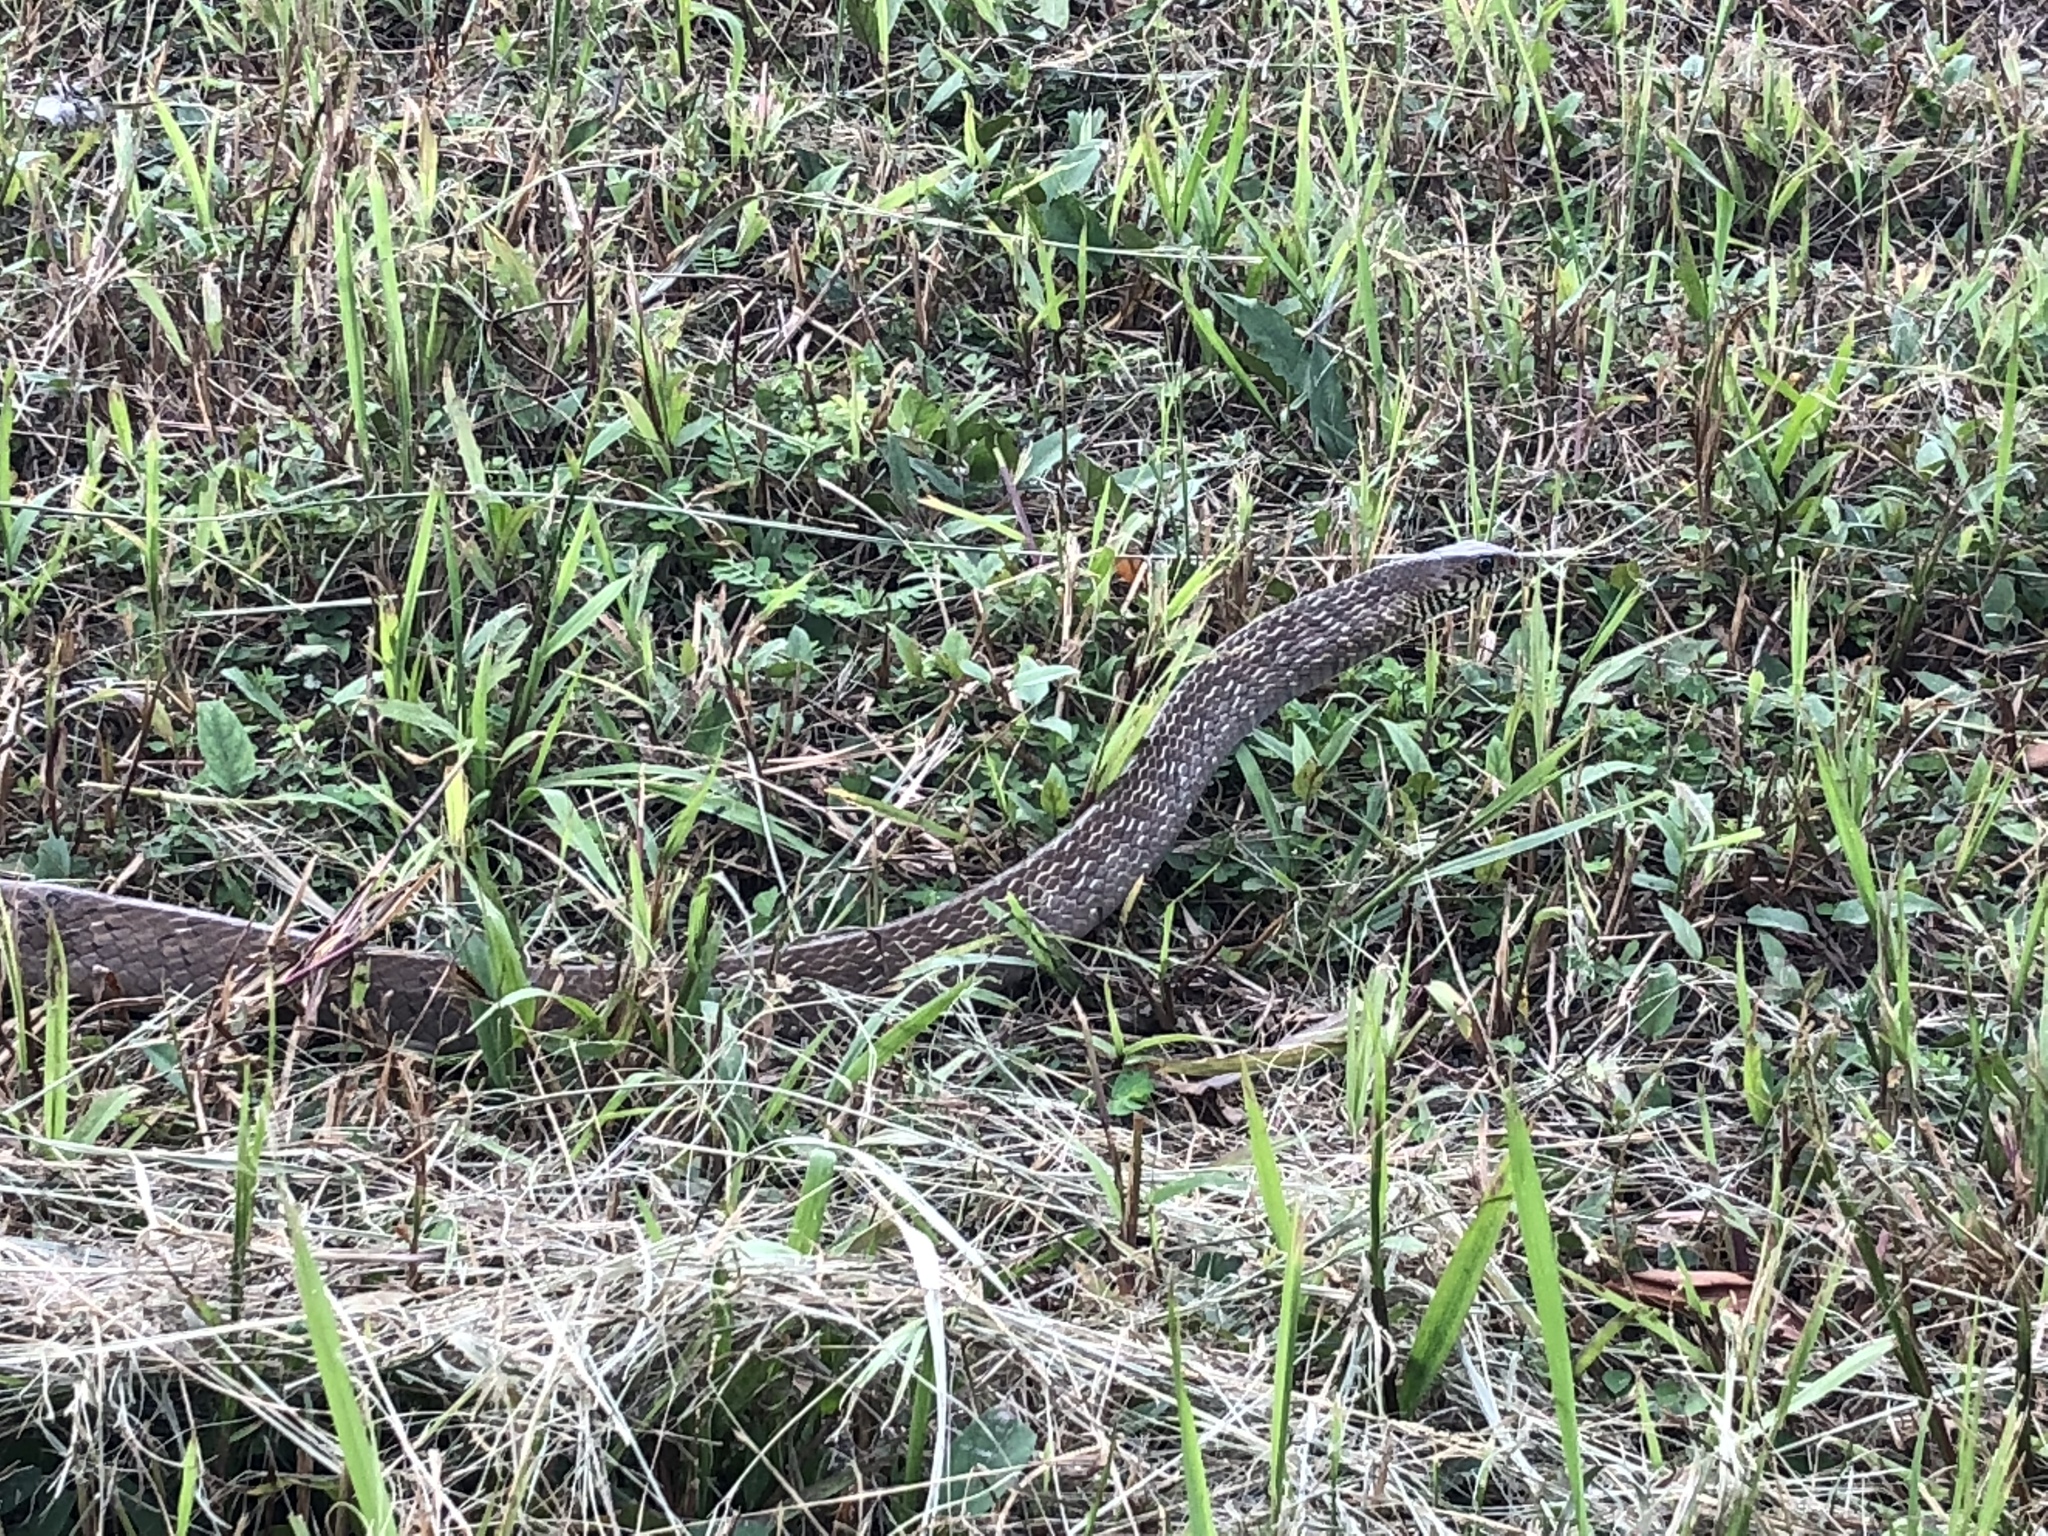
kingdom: Animalia
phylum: Chordata
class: Squamata
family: Colubridae
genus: Ptyas
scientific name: Ptyas mucosa
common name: Oriental ratsnake
